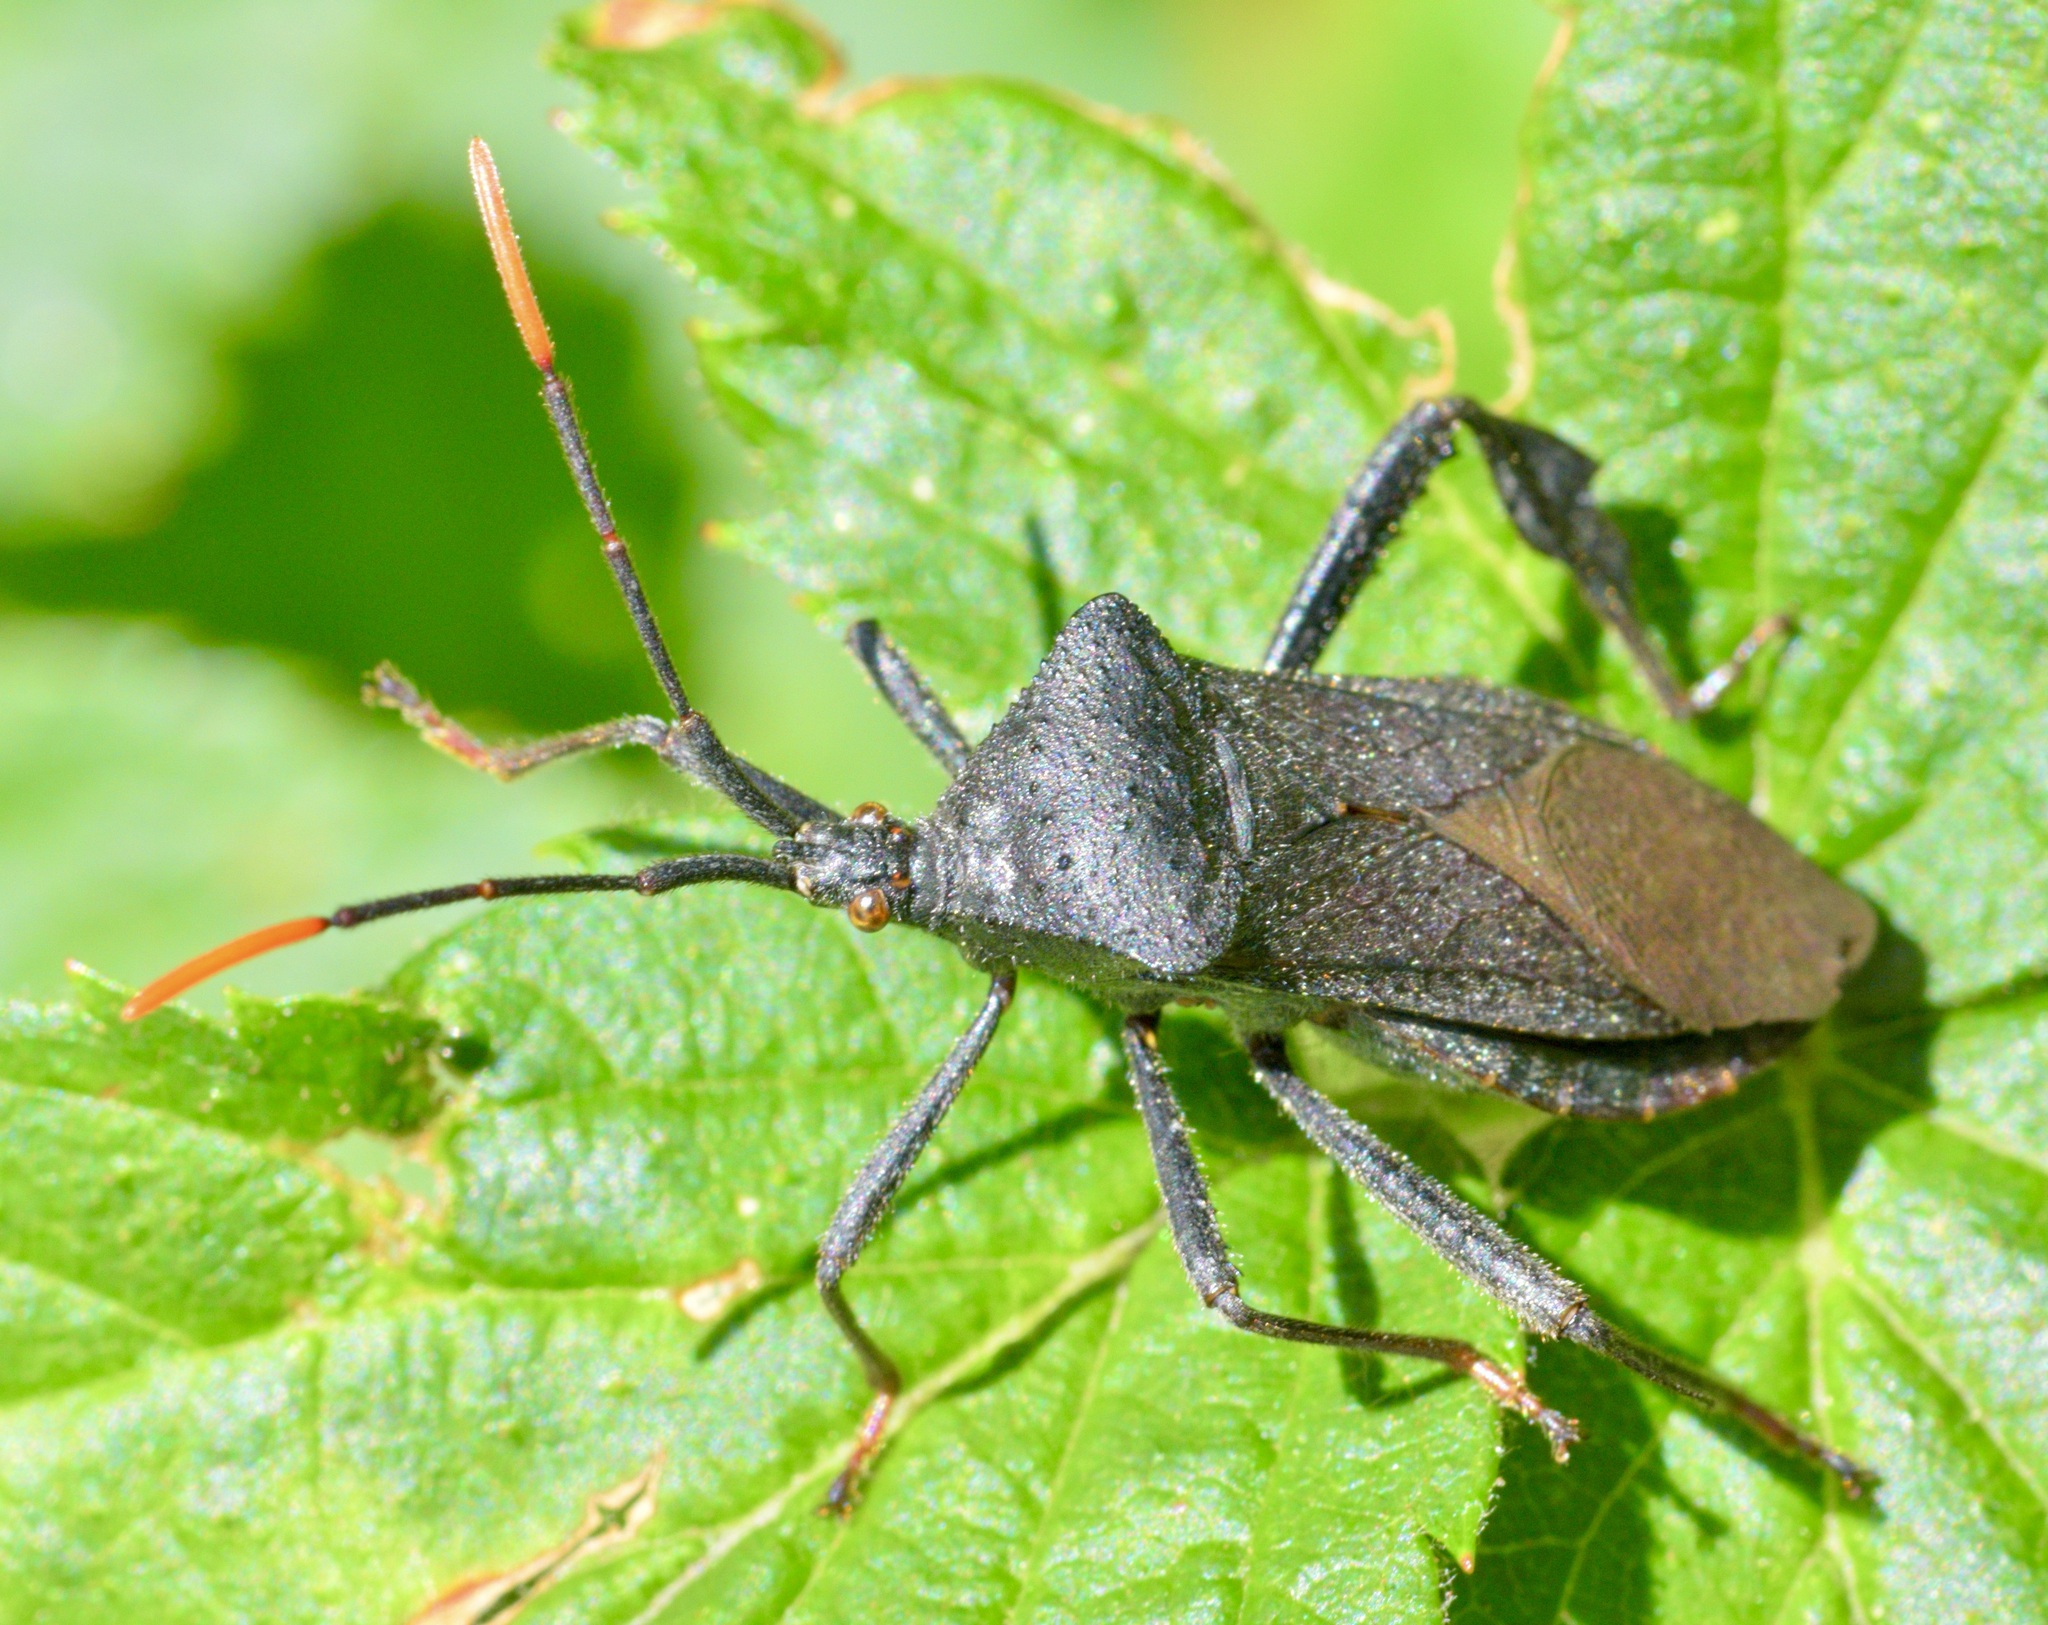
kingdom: Animalia
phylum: Arthropoda
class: Insecta
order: Hemiptera
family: Coreidae
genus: Acanthocephala
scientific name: Acanthocephala terminalis
